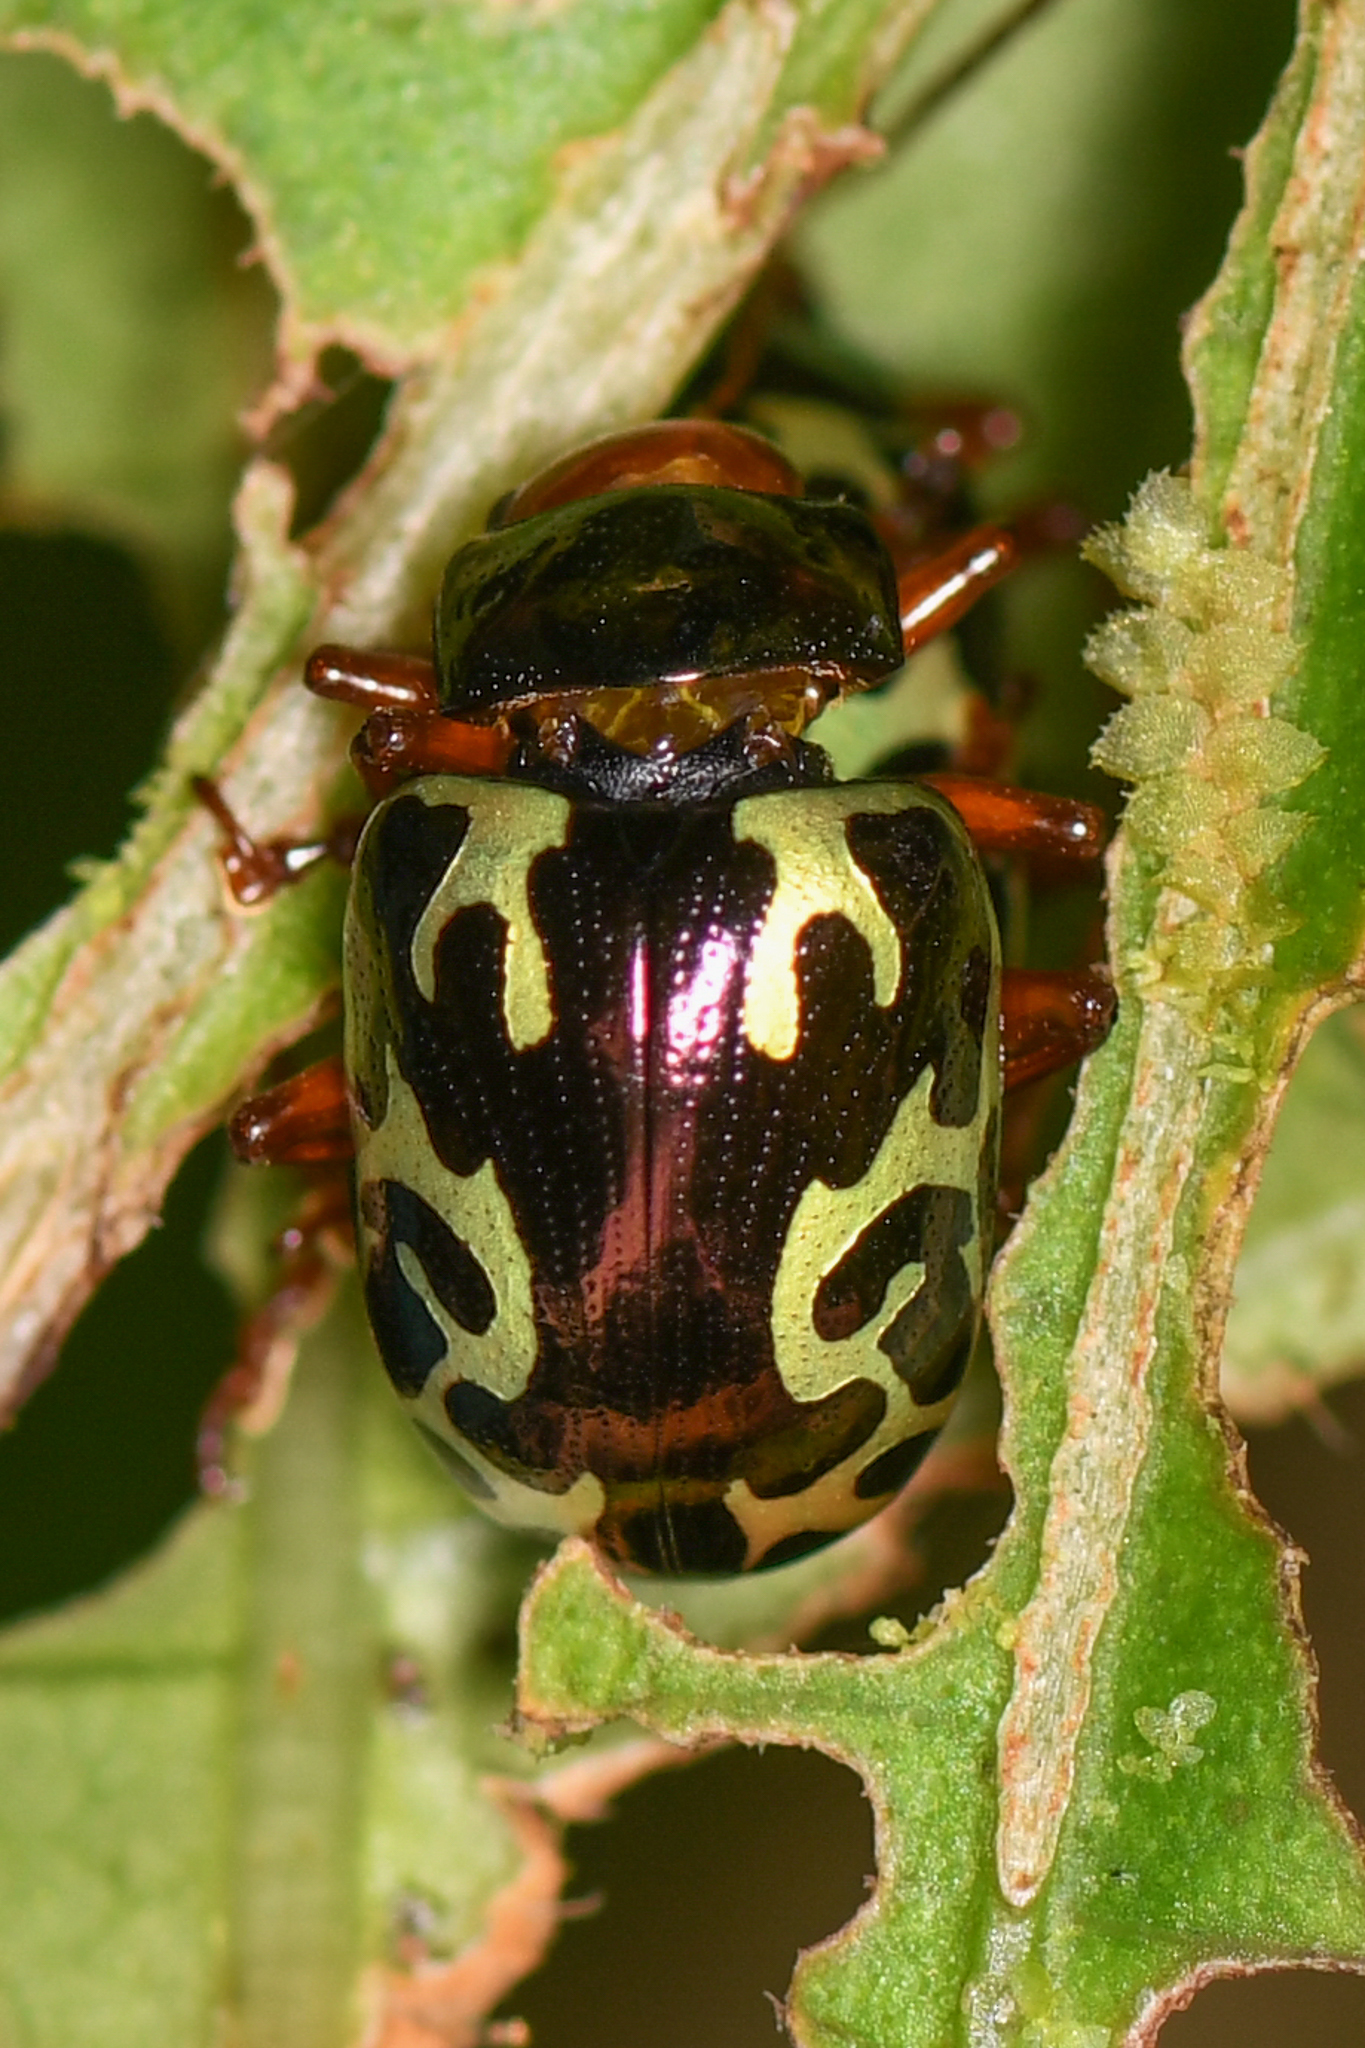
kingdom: Animalia
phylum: Arthropoda
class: Insecta
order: Coleoptera
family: Chrysomelidae
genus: Calligrapha
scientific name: Calligrapha
